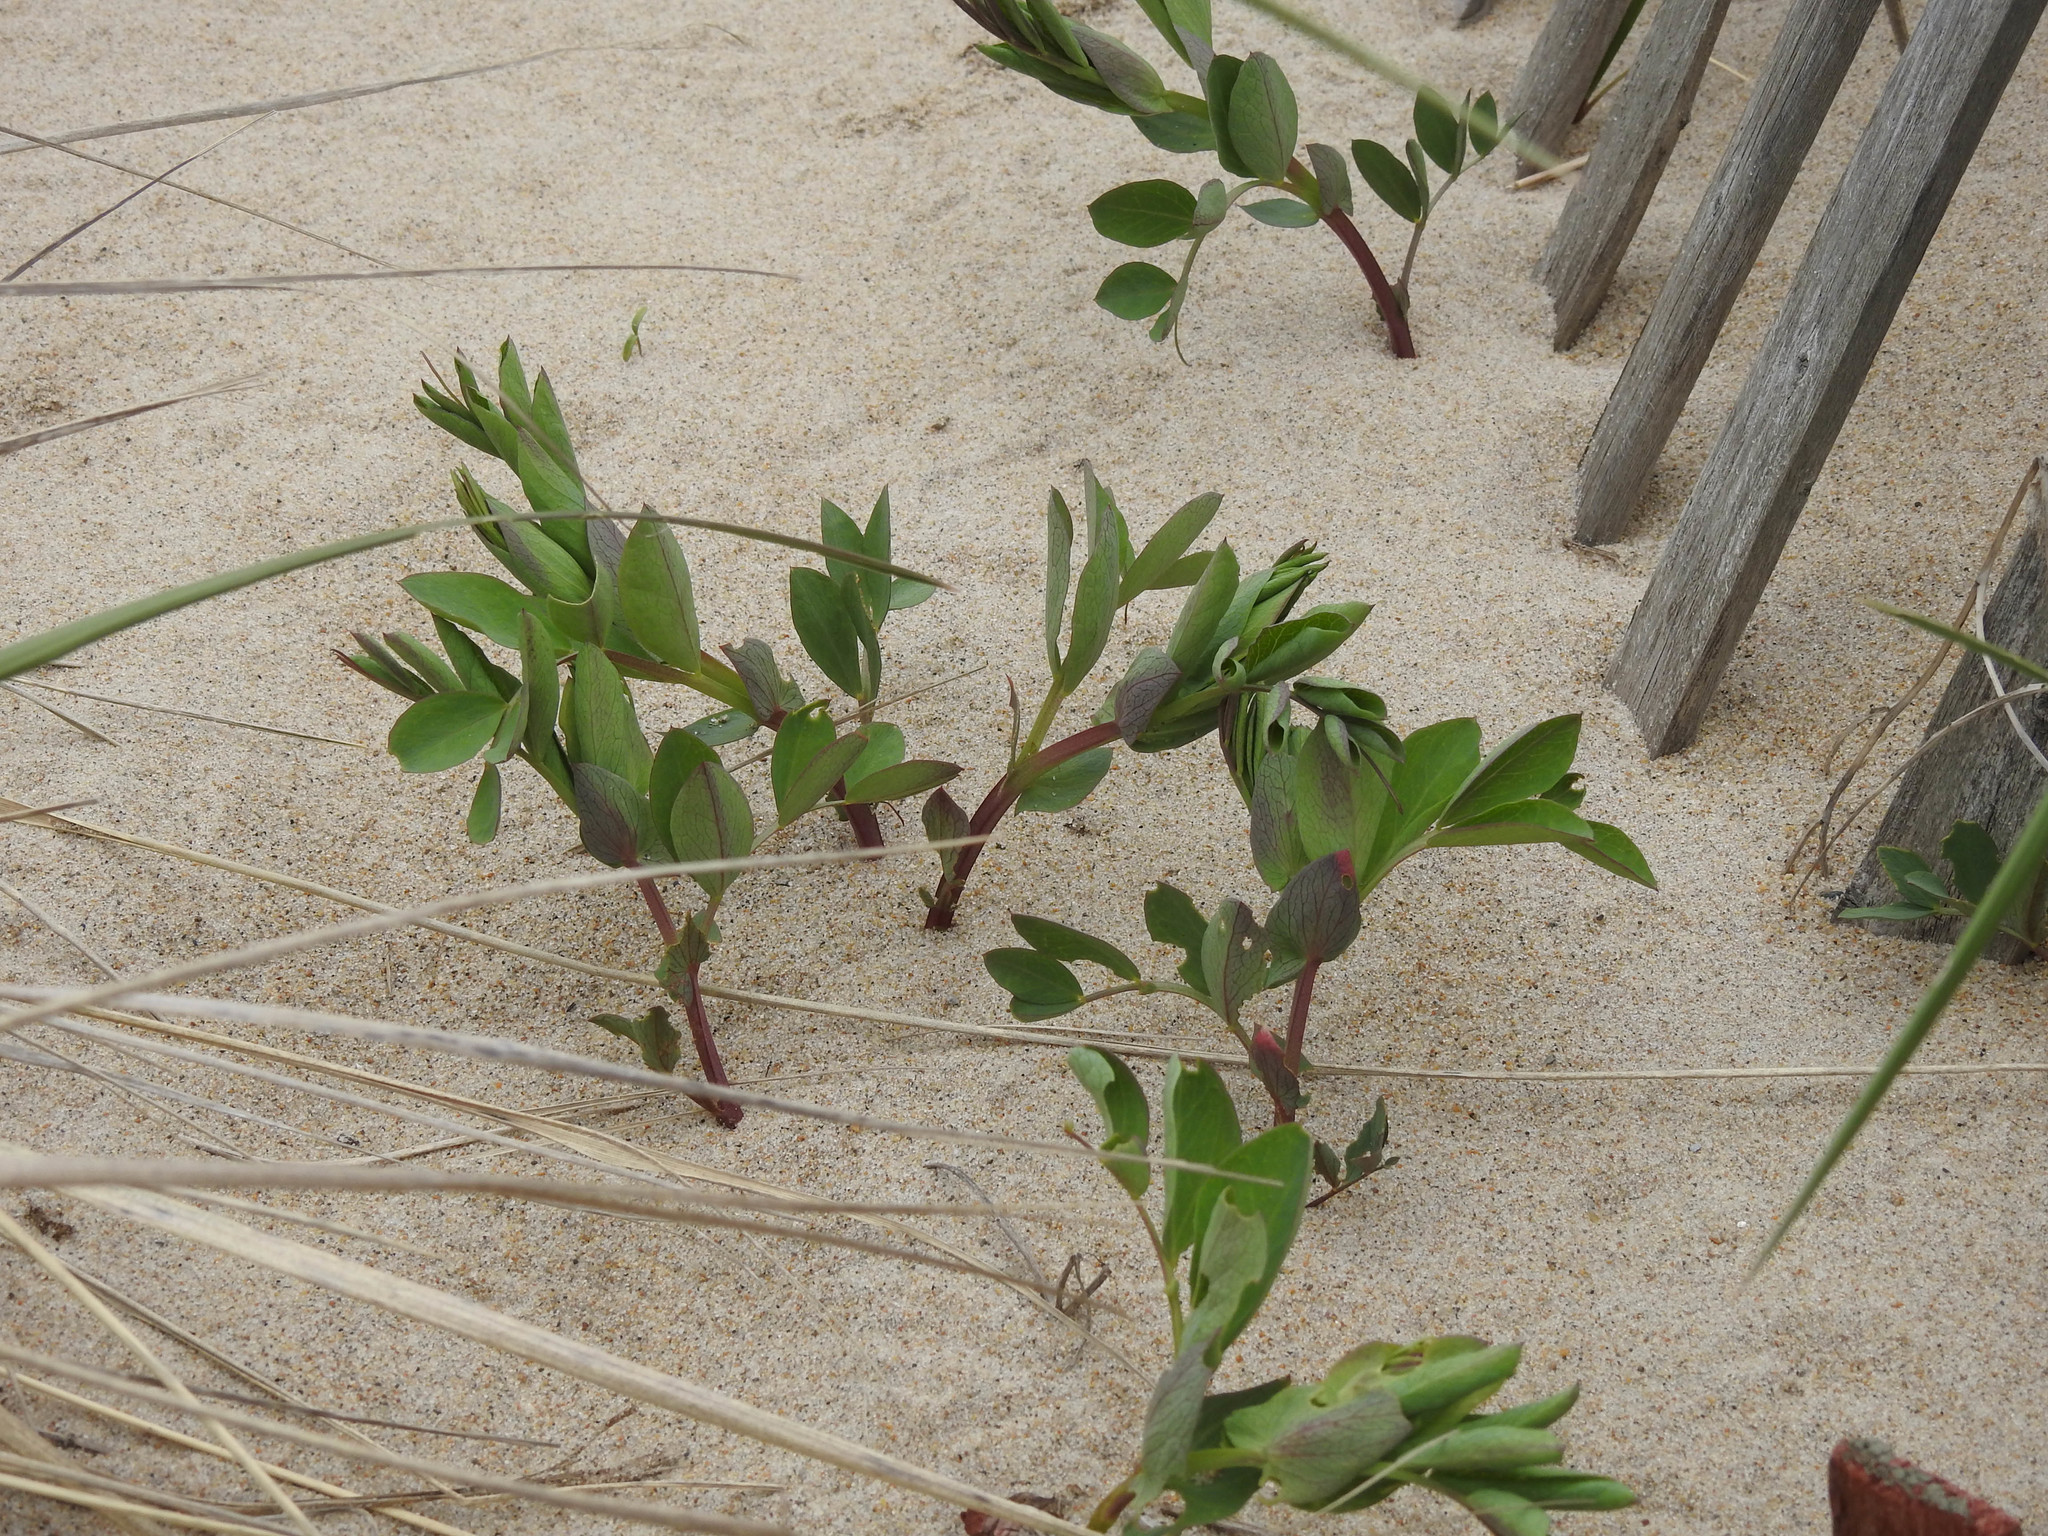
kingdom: Plantae
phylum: Tracheophyta
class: Magnoliopsida
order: Fabales
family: Fabaceae
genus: Lathyrus
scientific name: Lathyrus japonicus
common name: Sea pea
